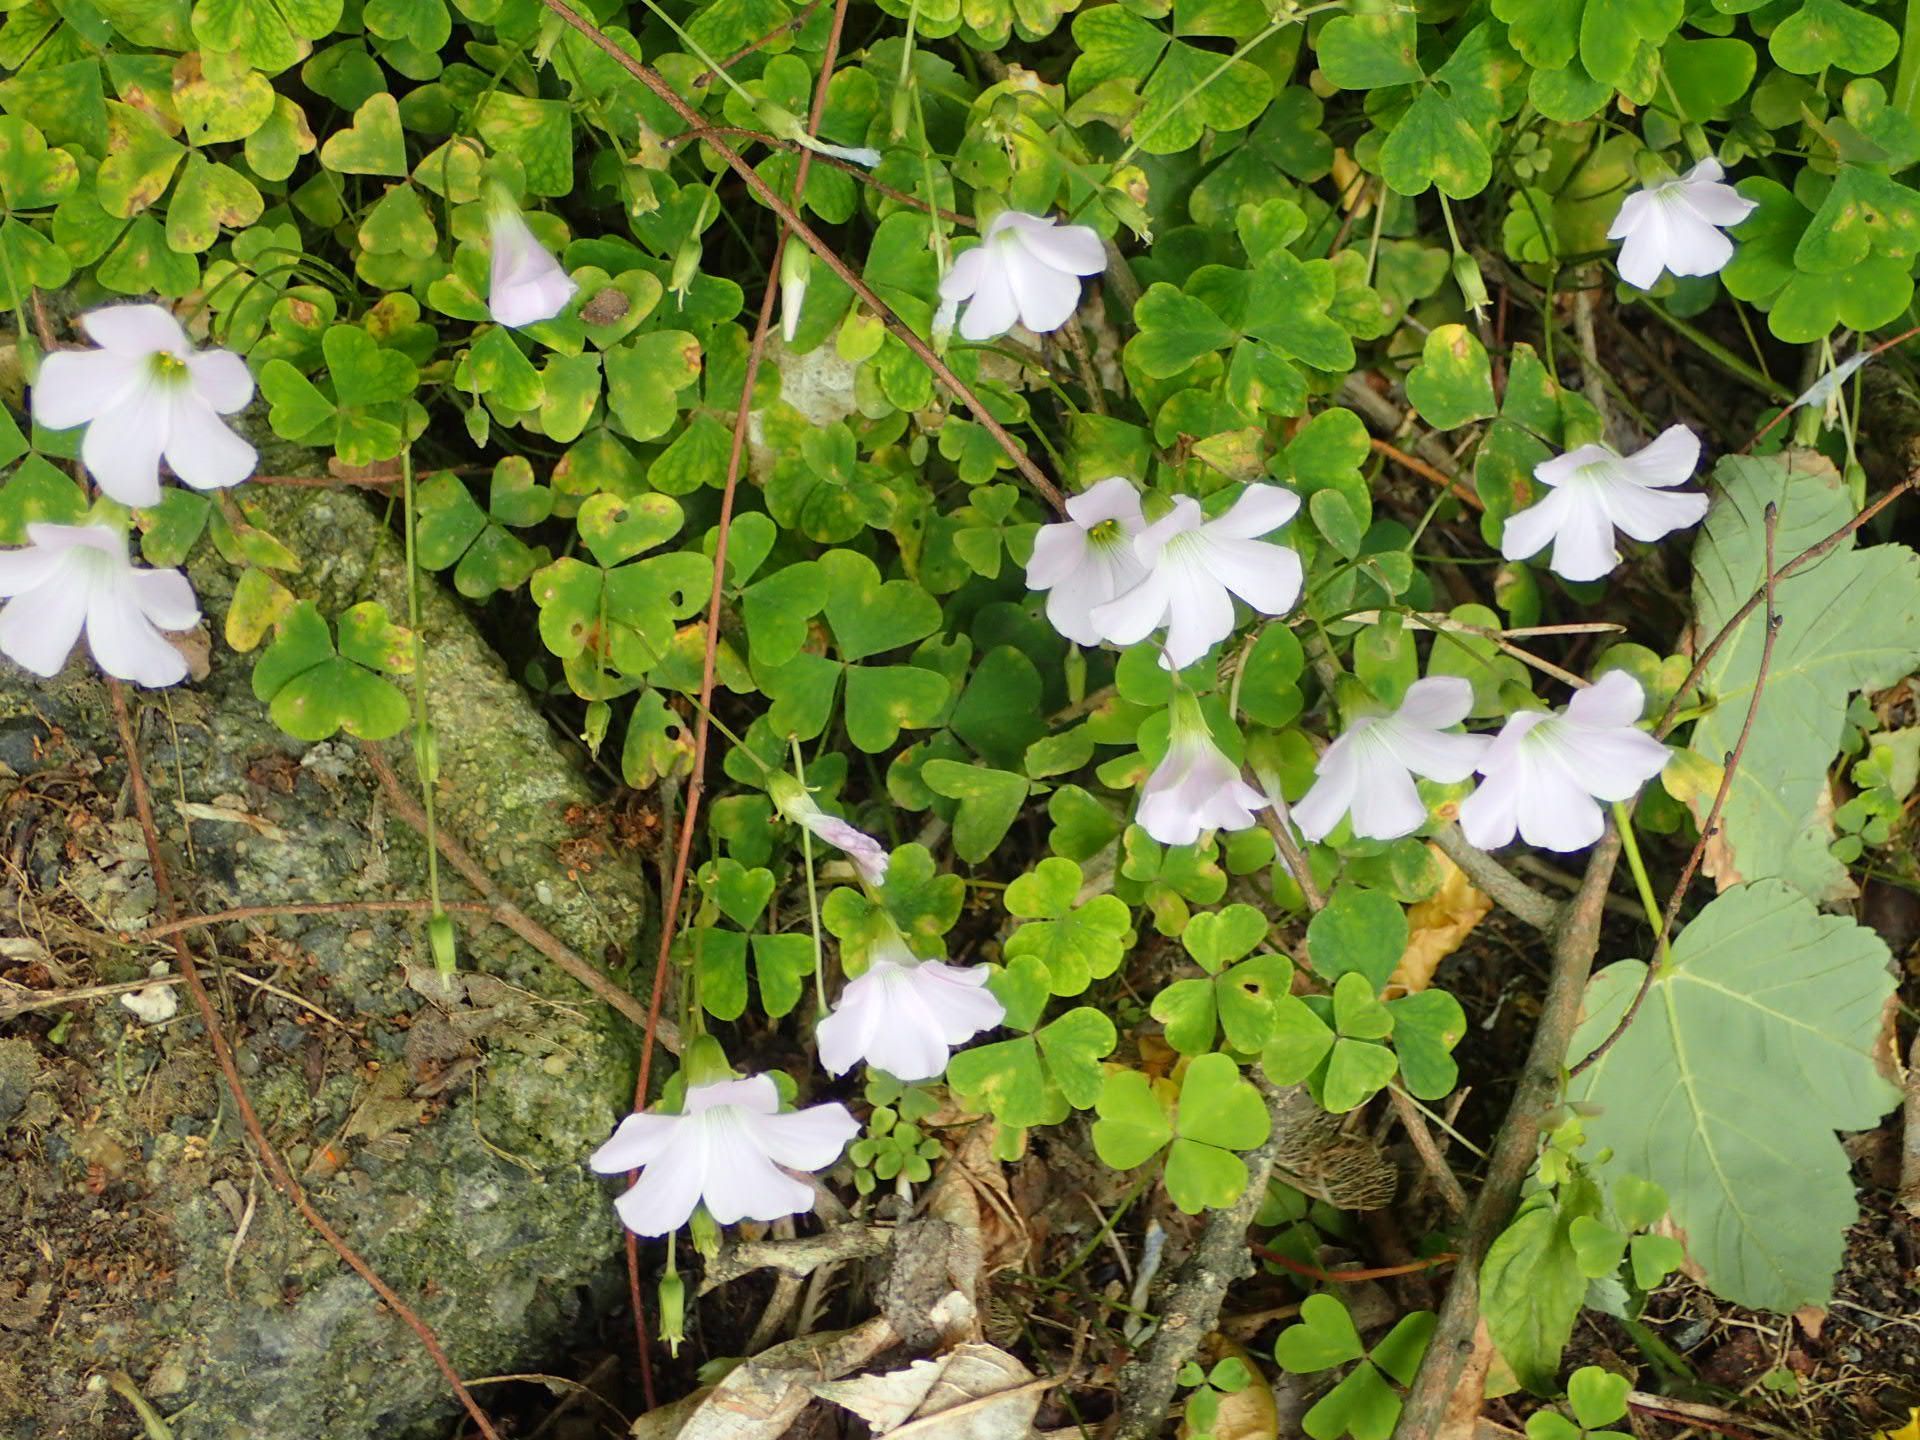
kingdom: Plantae
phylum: Tracheophyta
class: Magnoliopsida
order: Oxalidales
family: Oxalidaceae
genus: Oxalis
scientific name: Oxalis incarnata
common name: Pale pink-sorrel
